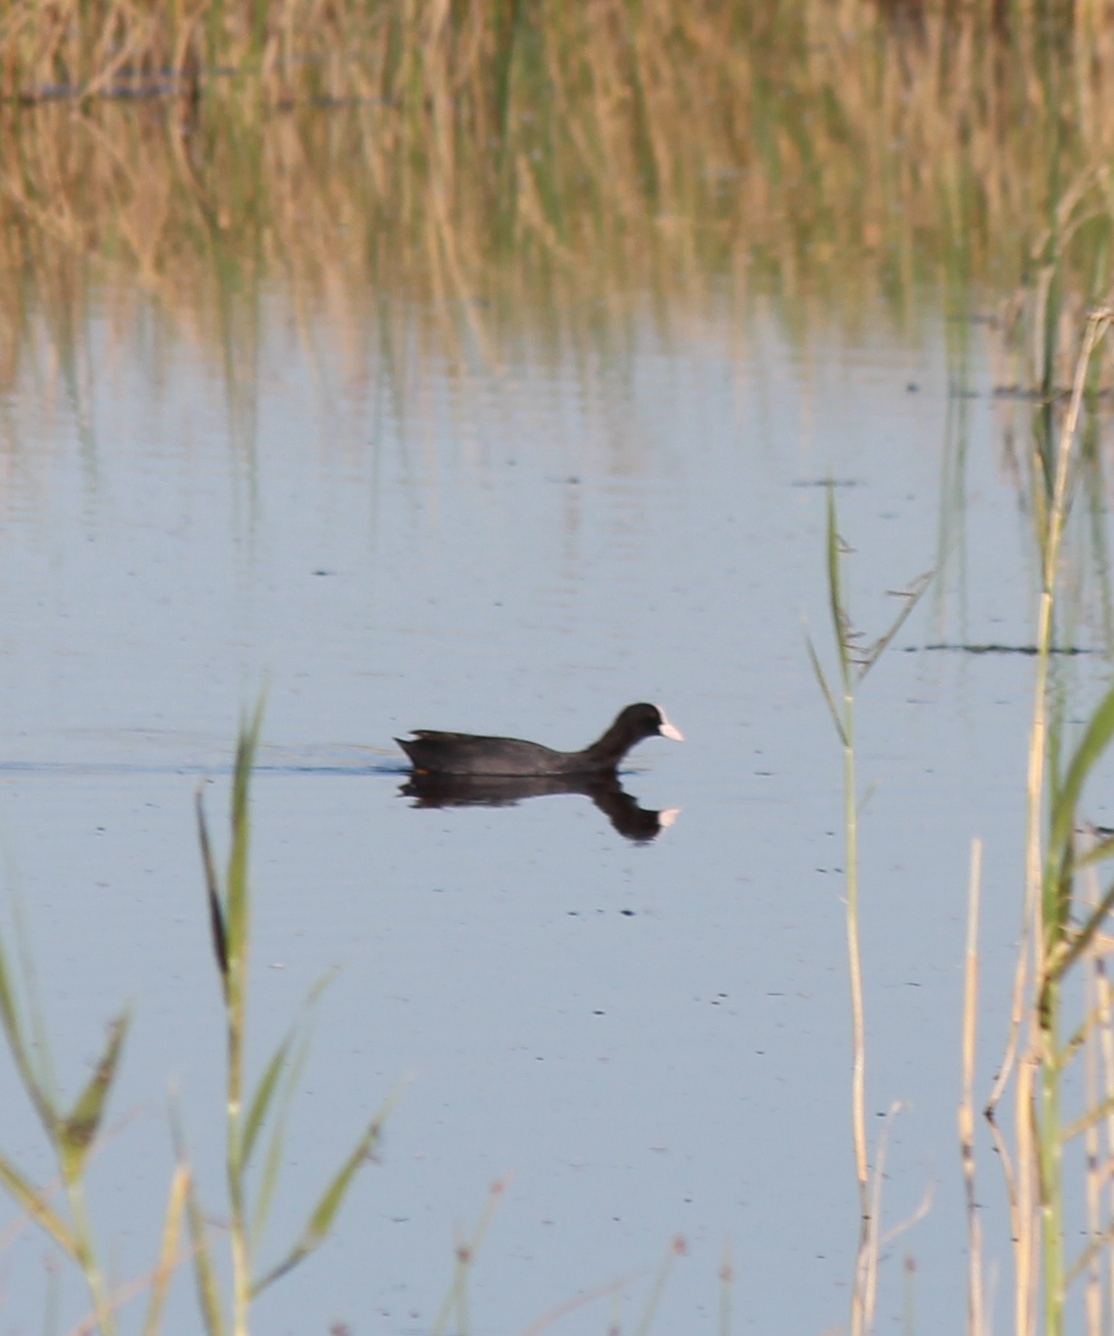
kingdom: Animalia
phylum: Chordata
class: Aves
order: Gruiformes
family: Rallidae
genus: Fulica
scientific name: Fulica atra
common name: Eurasian coot
